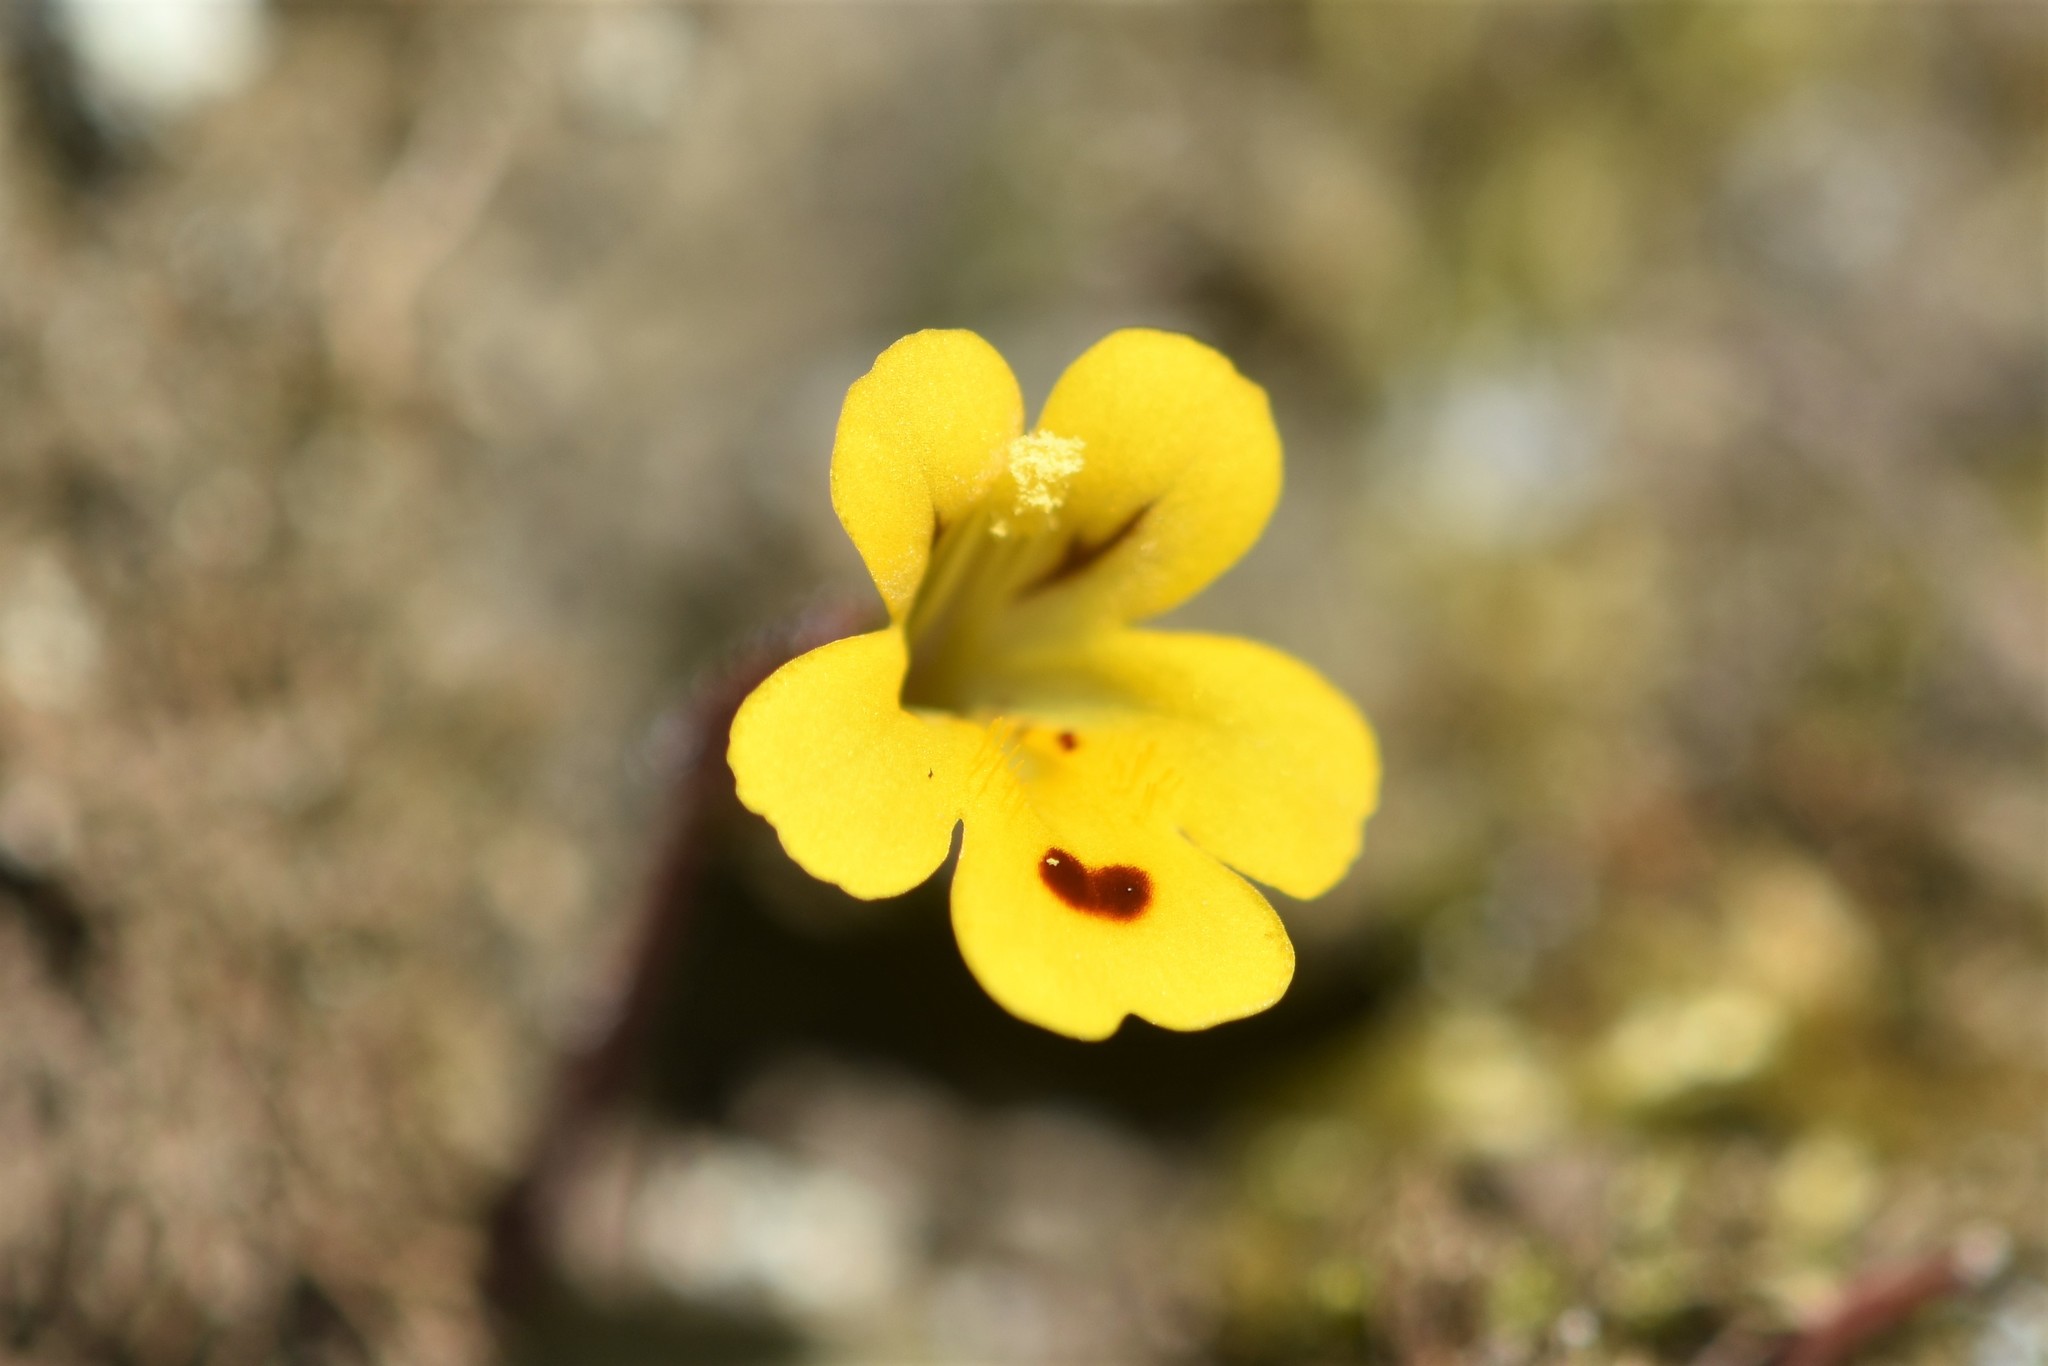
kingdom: Plantae
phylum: Tracheophyta
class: Magnoliopsida
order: Lamiales
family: Phrymaceae
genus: Erythranthe
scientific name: Erythranthe alsinoides
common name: Chickweed monkeyflower
